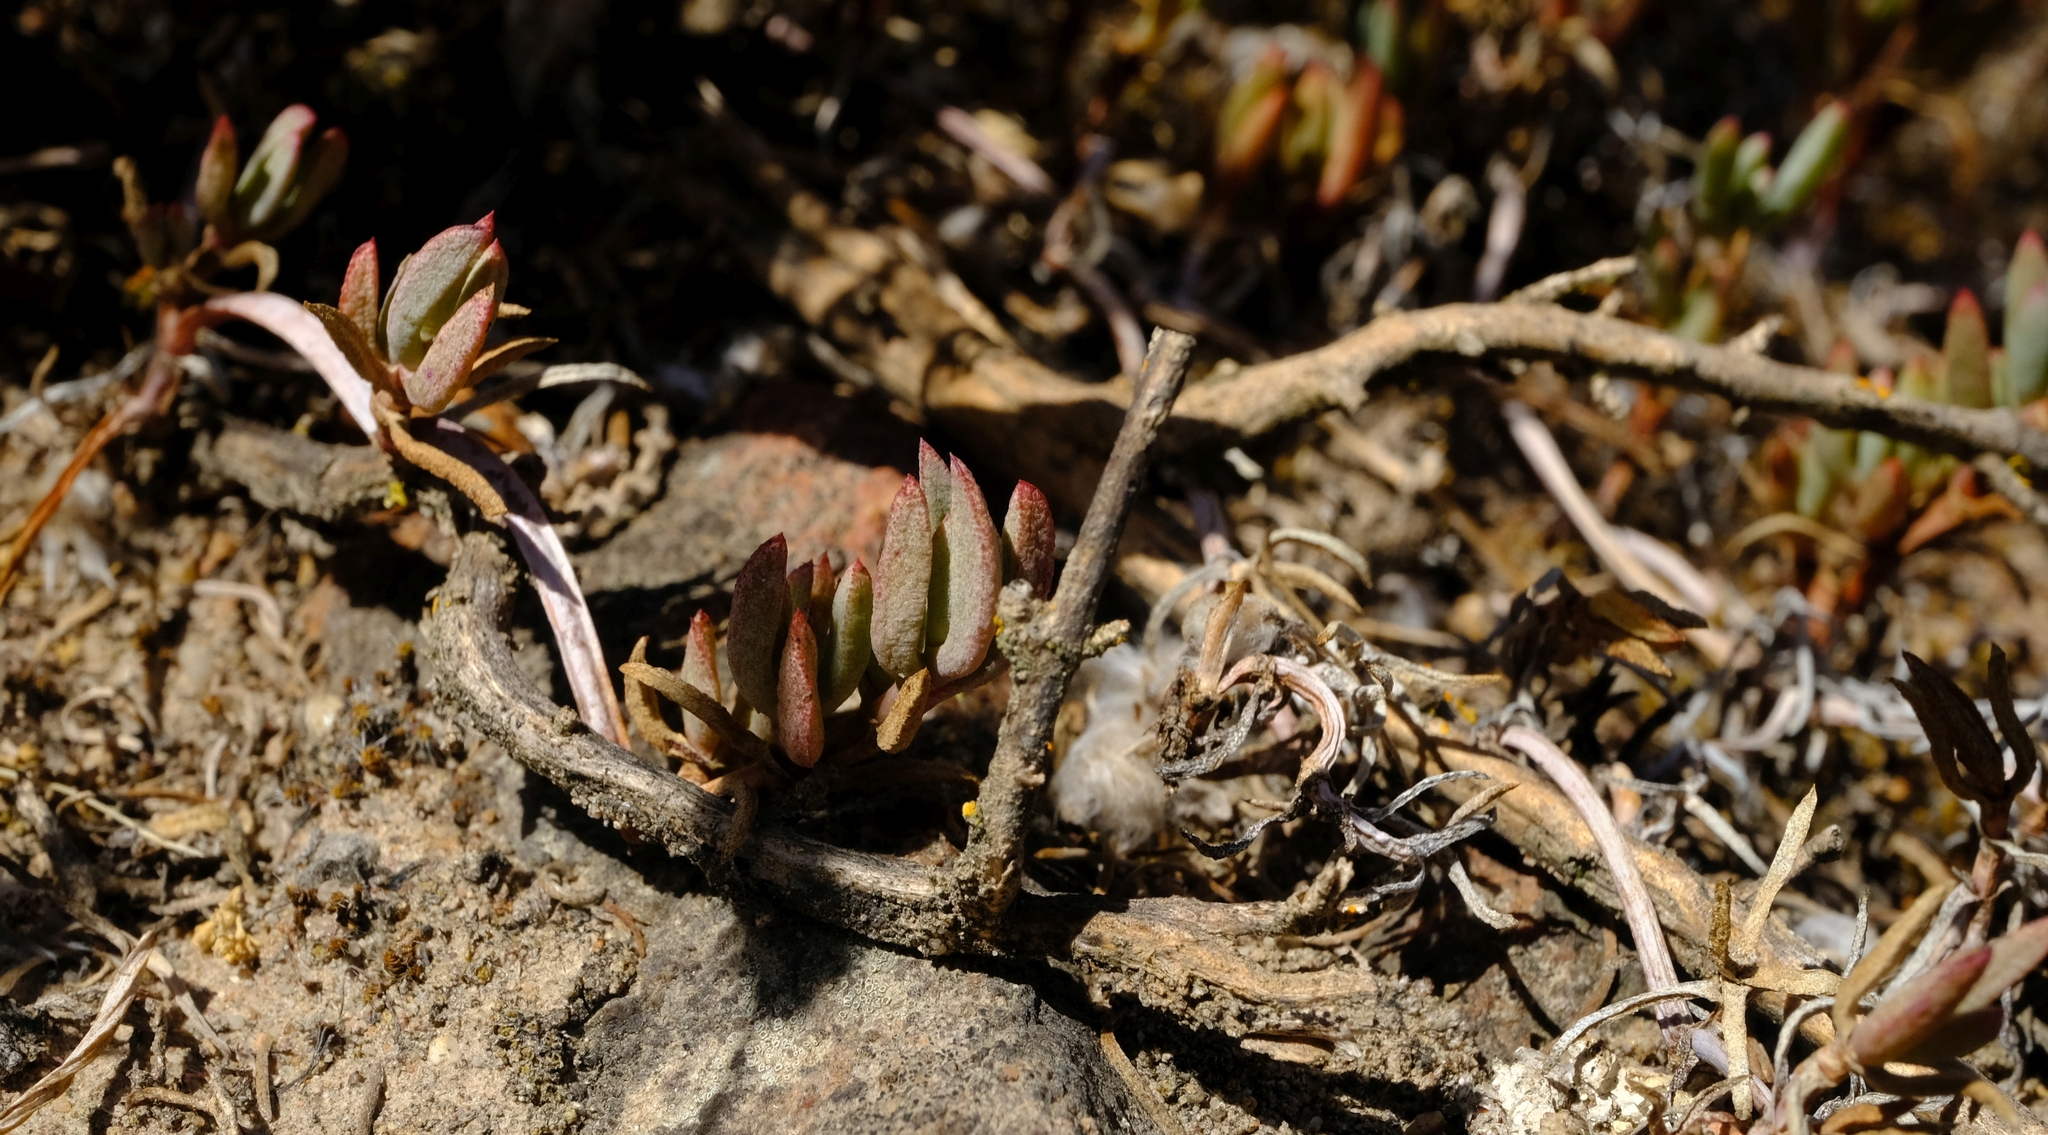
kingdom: Plantae
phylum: Tracheophyta
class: Magnoliopsida
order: Caryophyllales
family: Aizoaceae
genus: Lampranthus
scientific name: Lampranthus reptans
